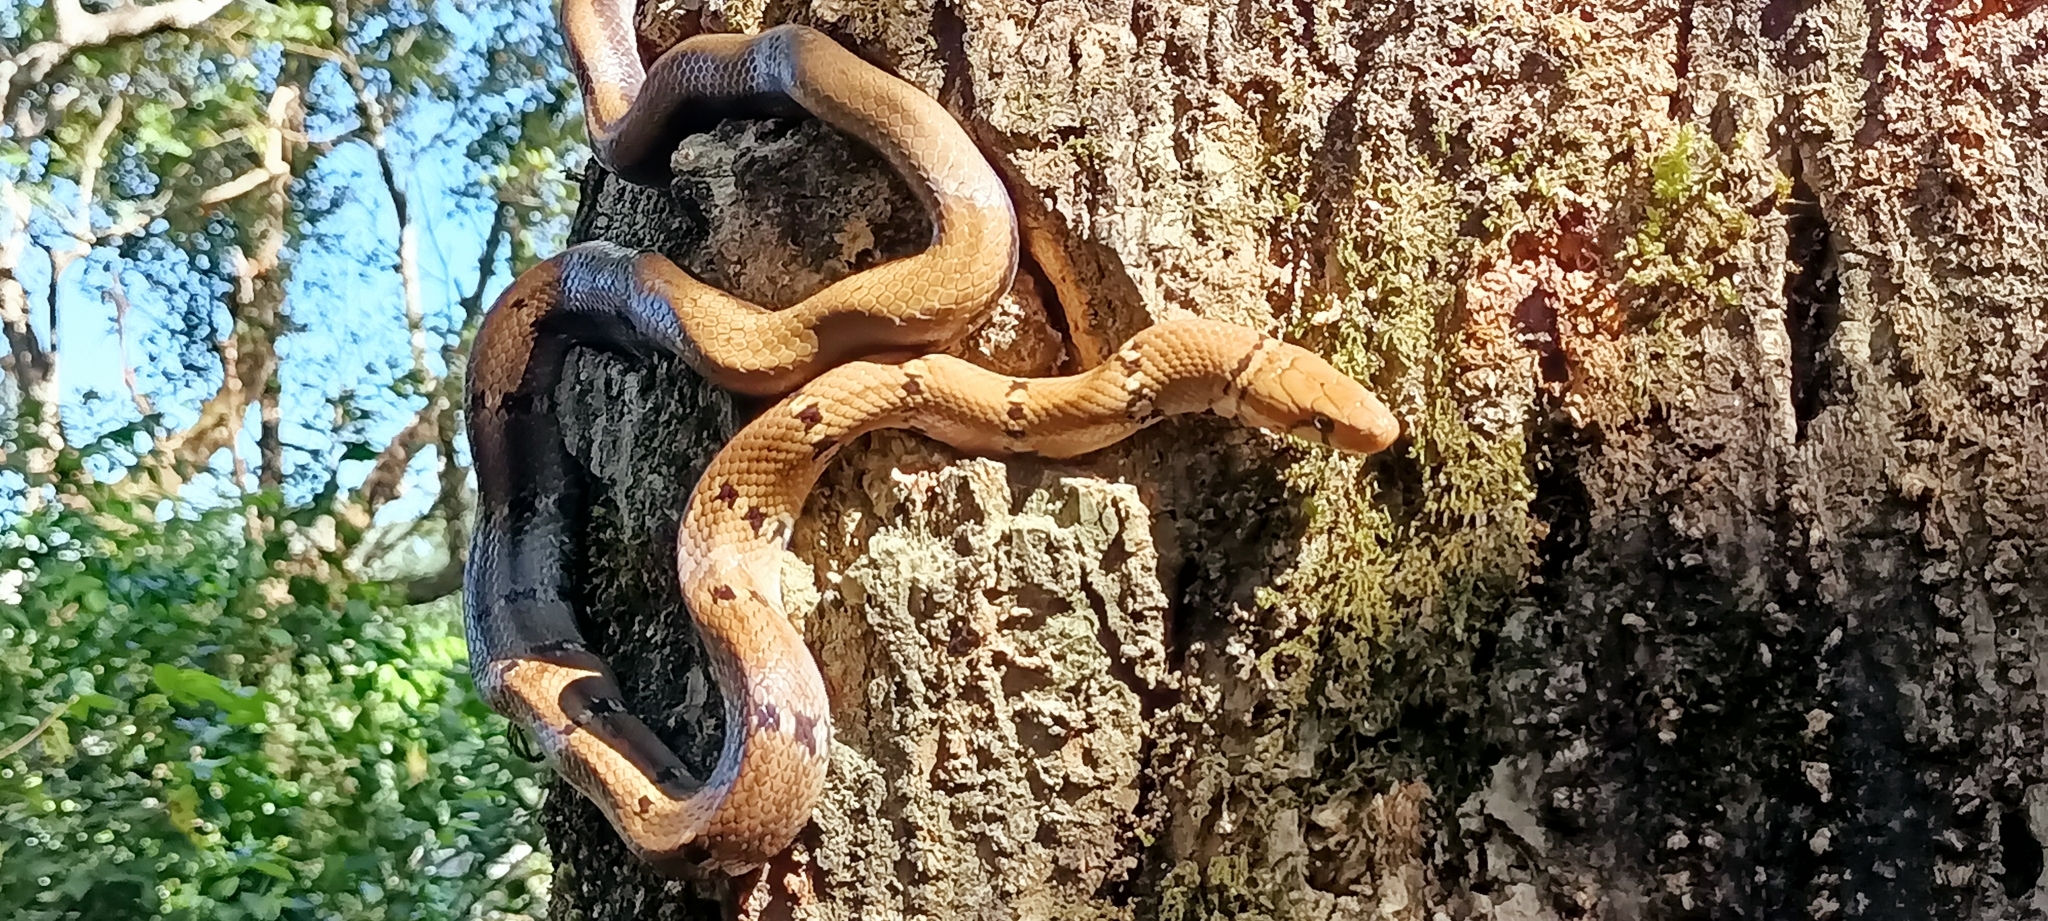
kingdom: Animalia
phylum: Chordata
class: Squamata
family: Colubridae
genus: Coelognathus
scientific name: Coelognathus helena
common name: Trinket snake
